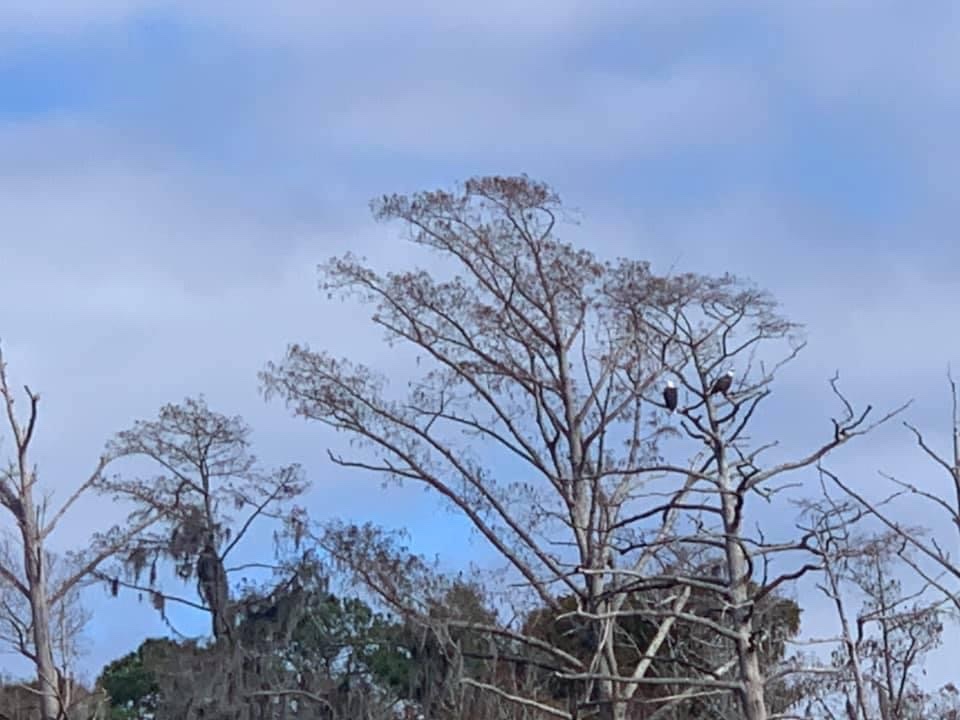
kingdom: Animalia
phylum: Chordata
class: Aves
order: Accipitriformes
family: Accipitridae
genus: Haliaeetus
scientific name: Haliaeetus leucocephalus
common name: Bald eagle
